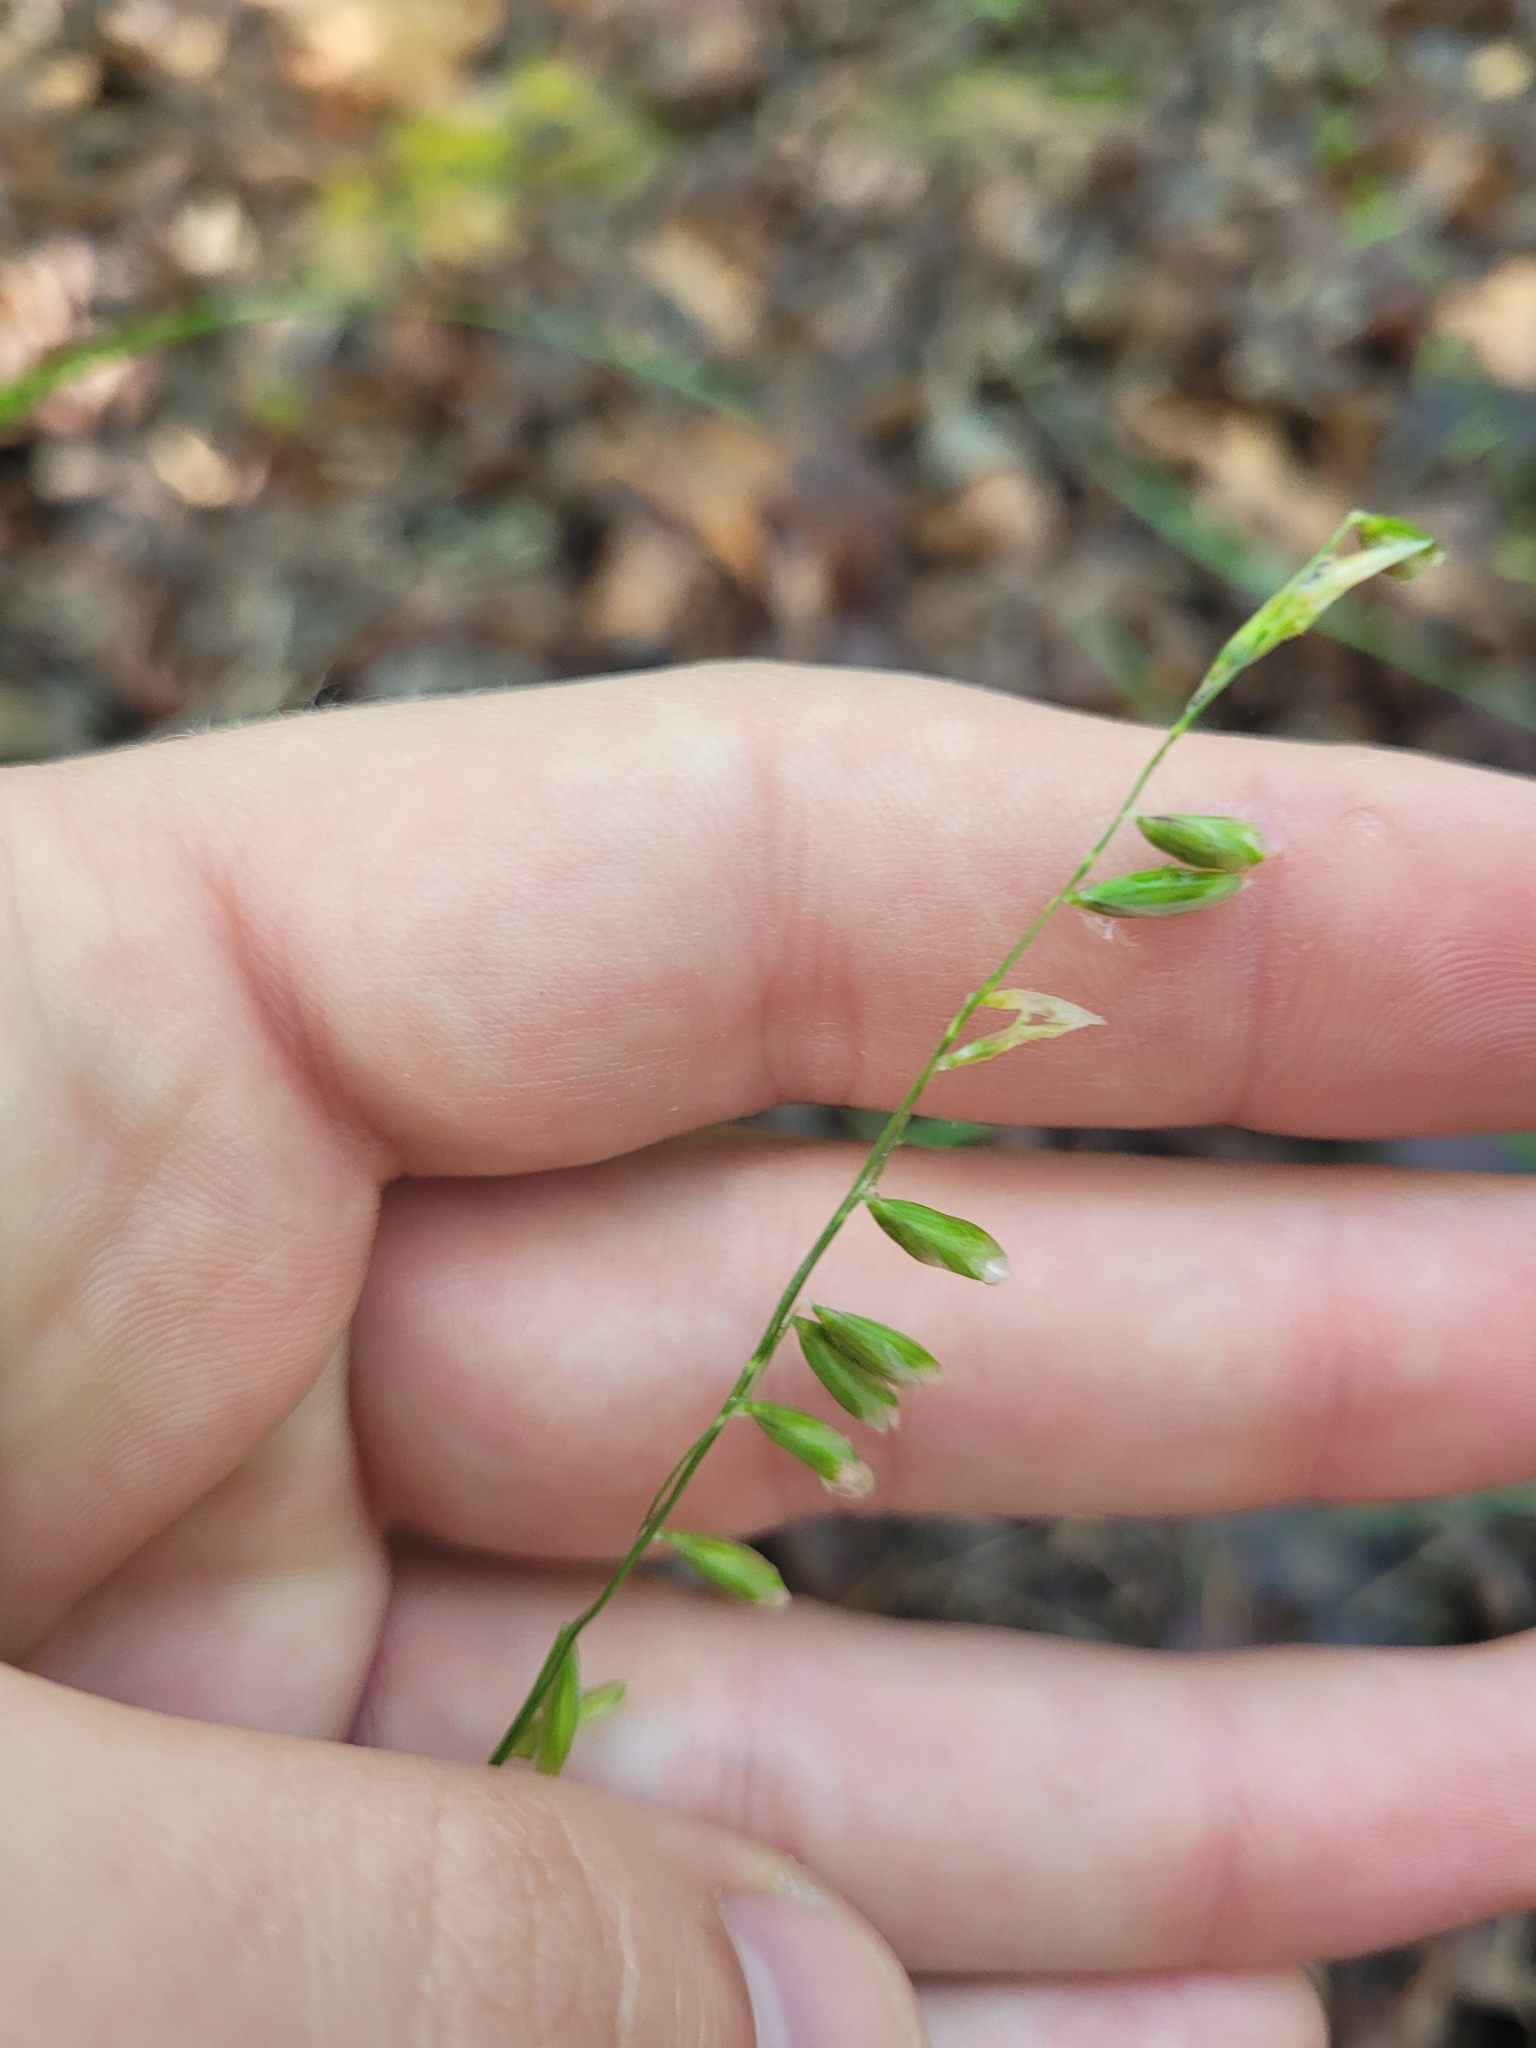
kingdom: Plantae
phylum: Tracheophyta
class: Liliopsida
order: Poales
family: Poaceae
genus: Melica
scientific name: Melica mutica
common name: Two-flower melic
